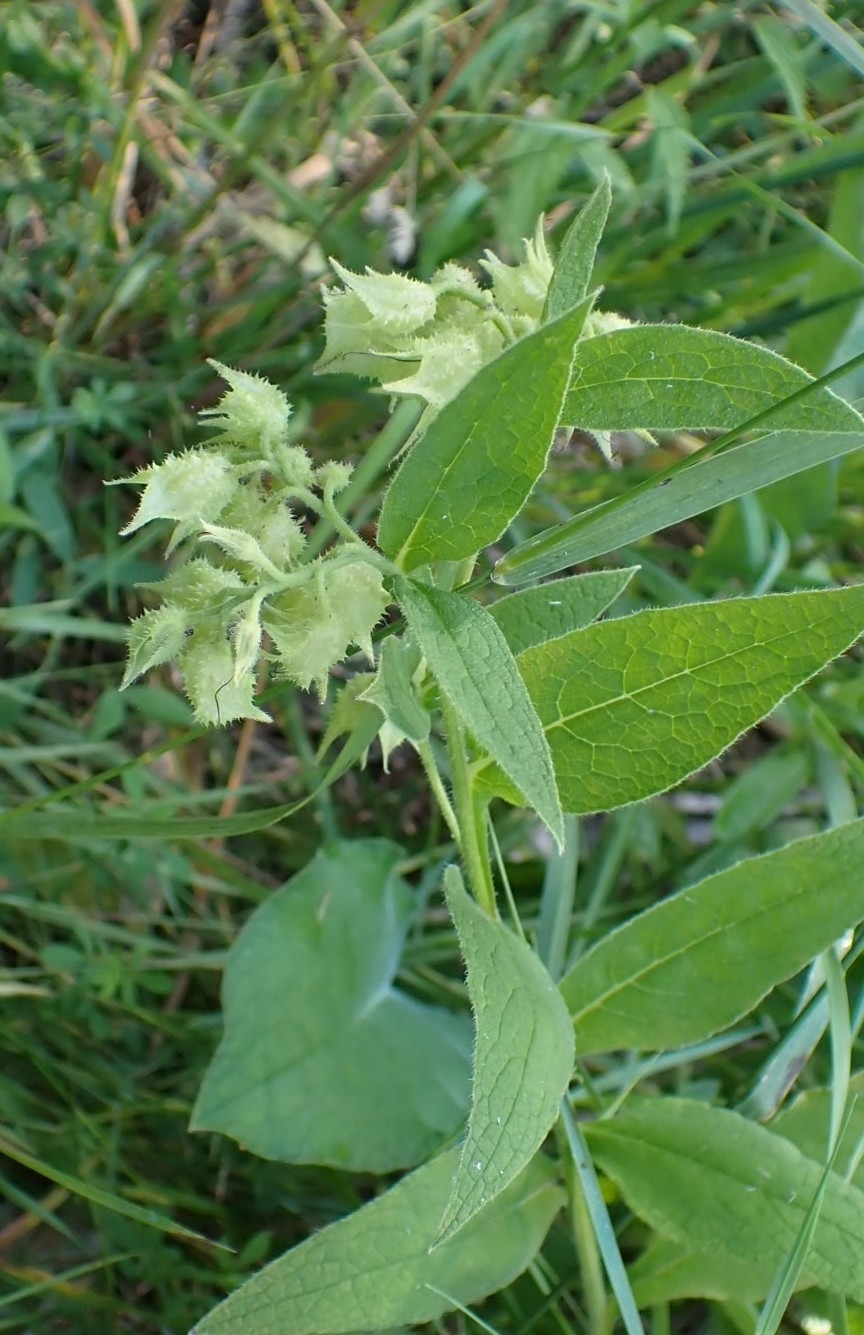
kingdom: Plantae
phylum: Tracheophyta
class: Magnoliopsida
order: Boraginales
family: Boraginaceae
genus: Symphytum
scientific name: Symphytum officinale
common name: Common comfrey
